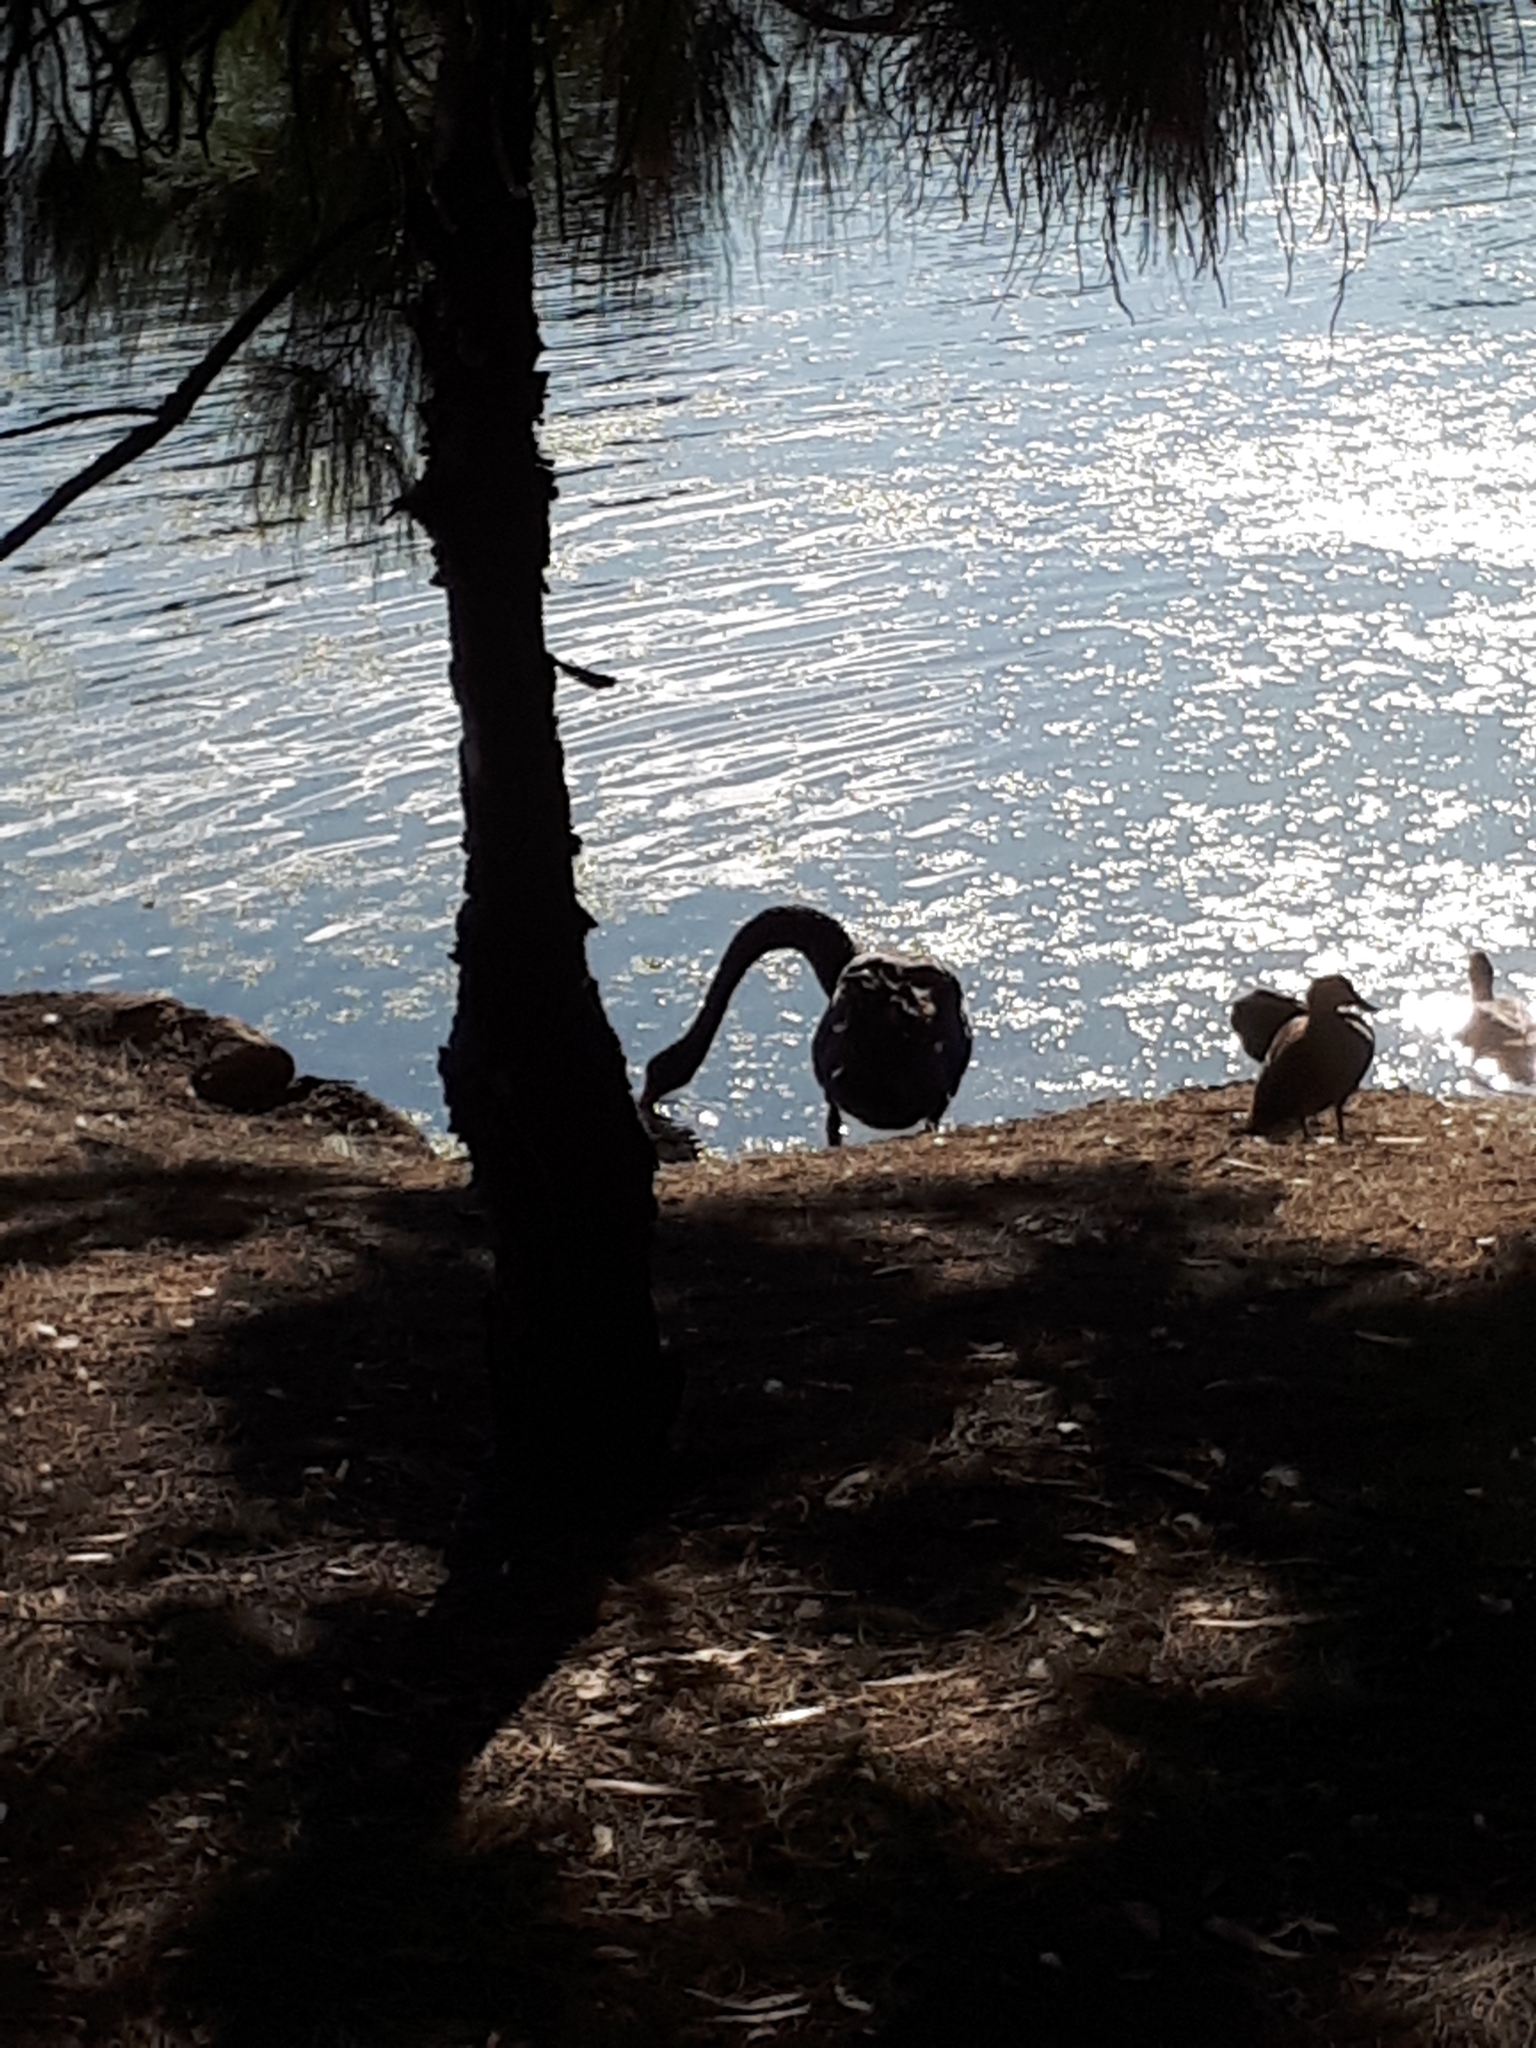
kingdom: Animalia
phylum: Chordata
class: Aves
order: Anseriformes
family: Anatidae
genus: Cygnus
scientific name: Cygnus atratus
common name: Black swan
